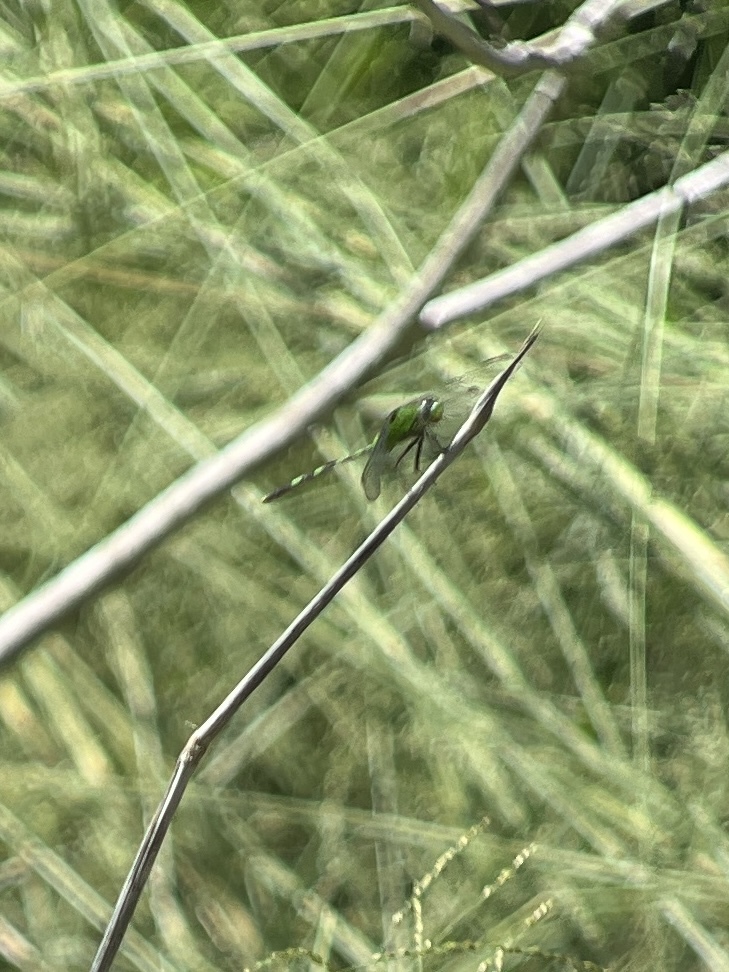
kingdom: Animalia
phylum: Arthropoda
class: Insecta
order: Odonata
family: Libellulidae
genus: Erythemis
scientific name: Erythemis vesiculosa
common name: Great pondhawk
